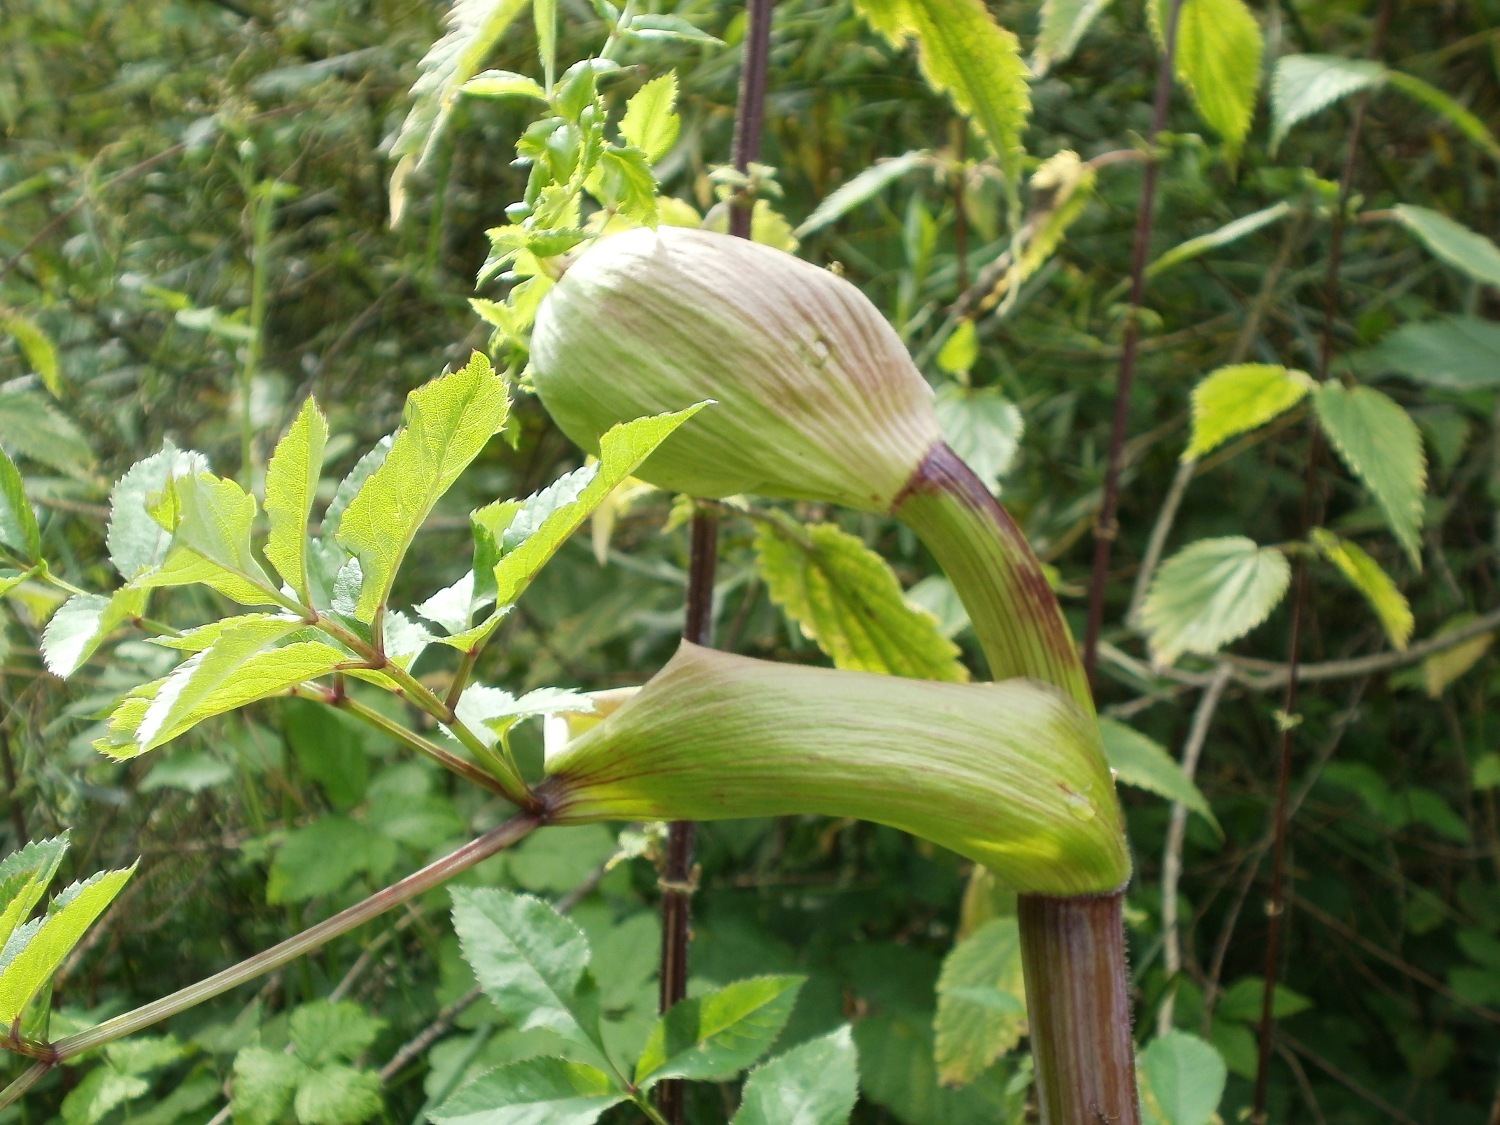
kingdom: Plantae
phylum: Tracheophyta
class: Magnoliopsida
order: Apiales
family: Apiaceae
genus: Angelica
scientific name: Angelica sylvestris
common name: Wild angelica
